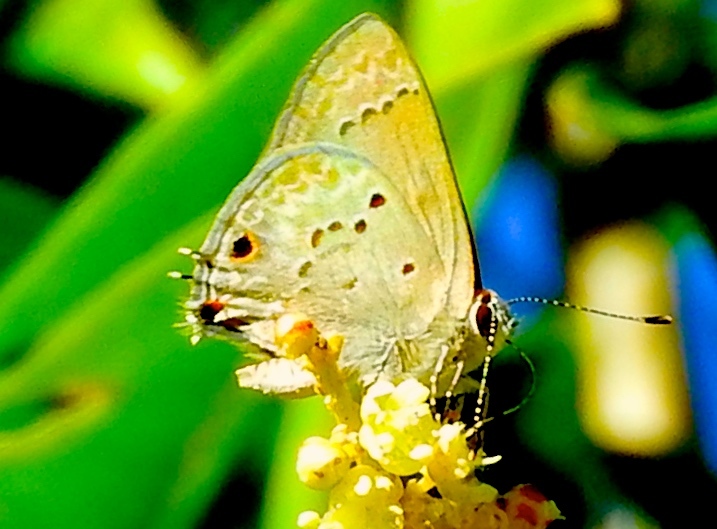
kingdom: Animalia
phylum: Arthropoda
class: Insecta
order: Lepidoptera
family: Lycaenidae
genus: Callicista
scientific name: Callicista columella
